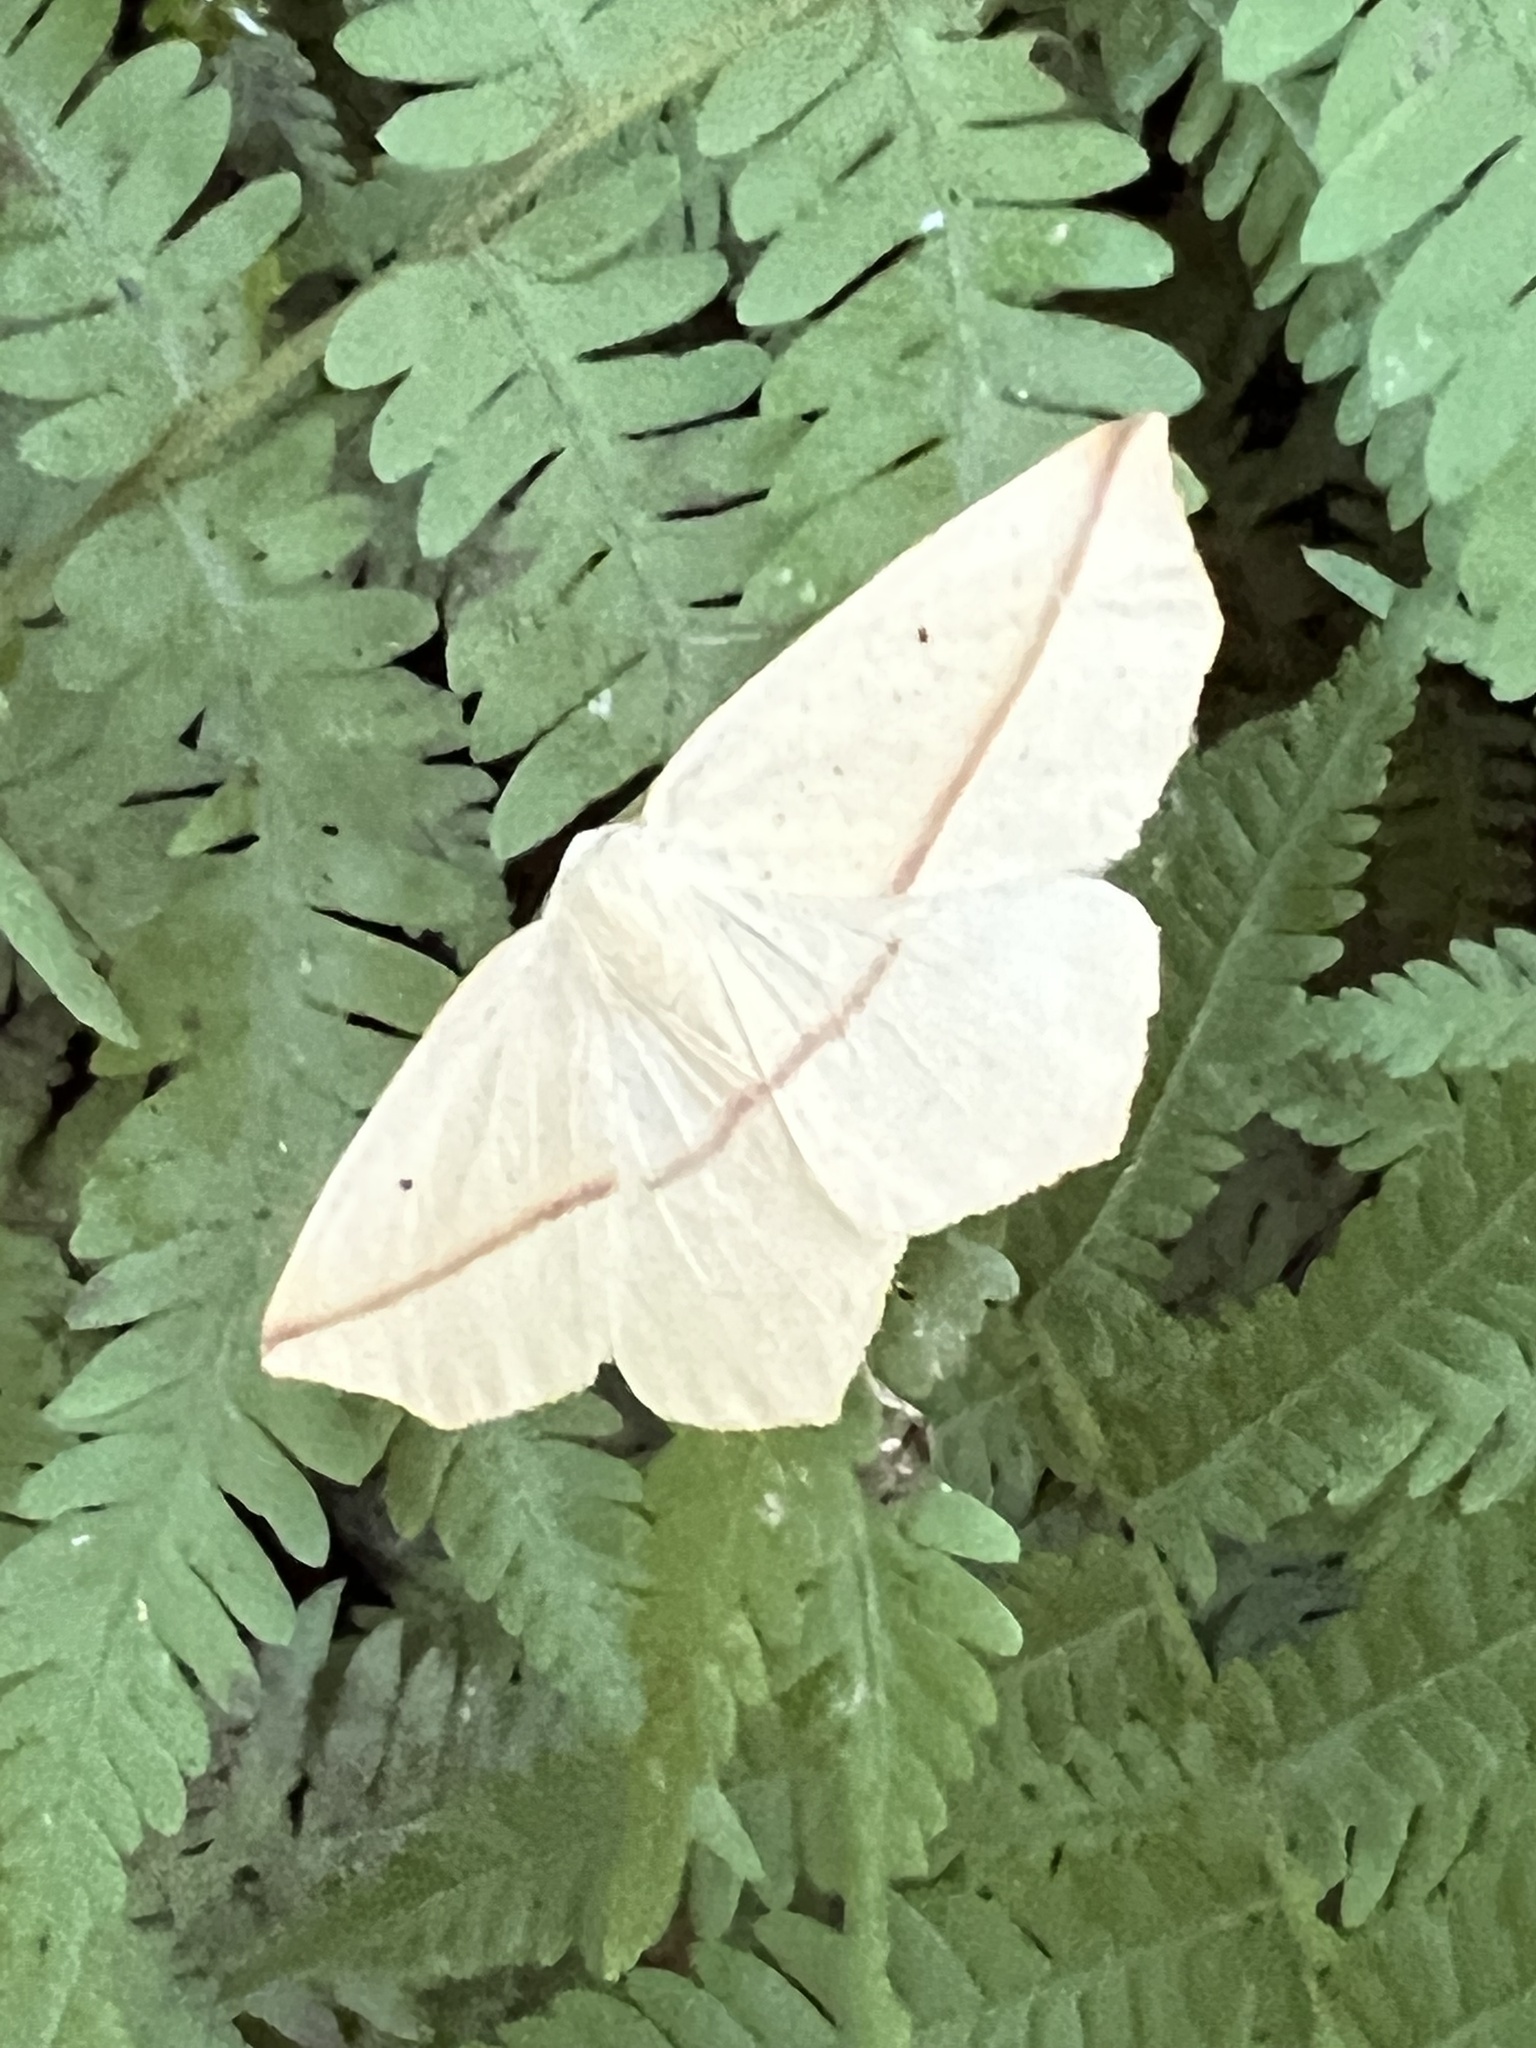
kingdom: Animalia
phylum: Arthropoda
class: Insecta
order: Lepidoptera
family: Geometridae
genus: Tetracis
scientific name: Tetracis crocallata
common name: Yellow slant-line
